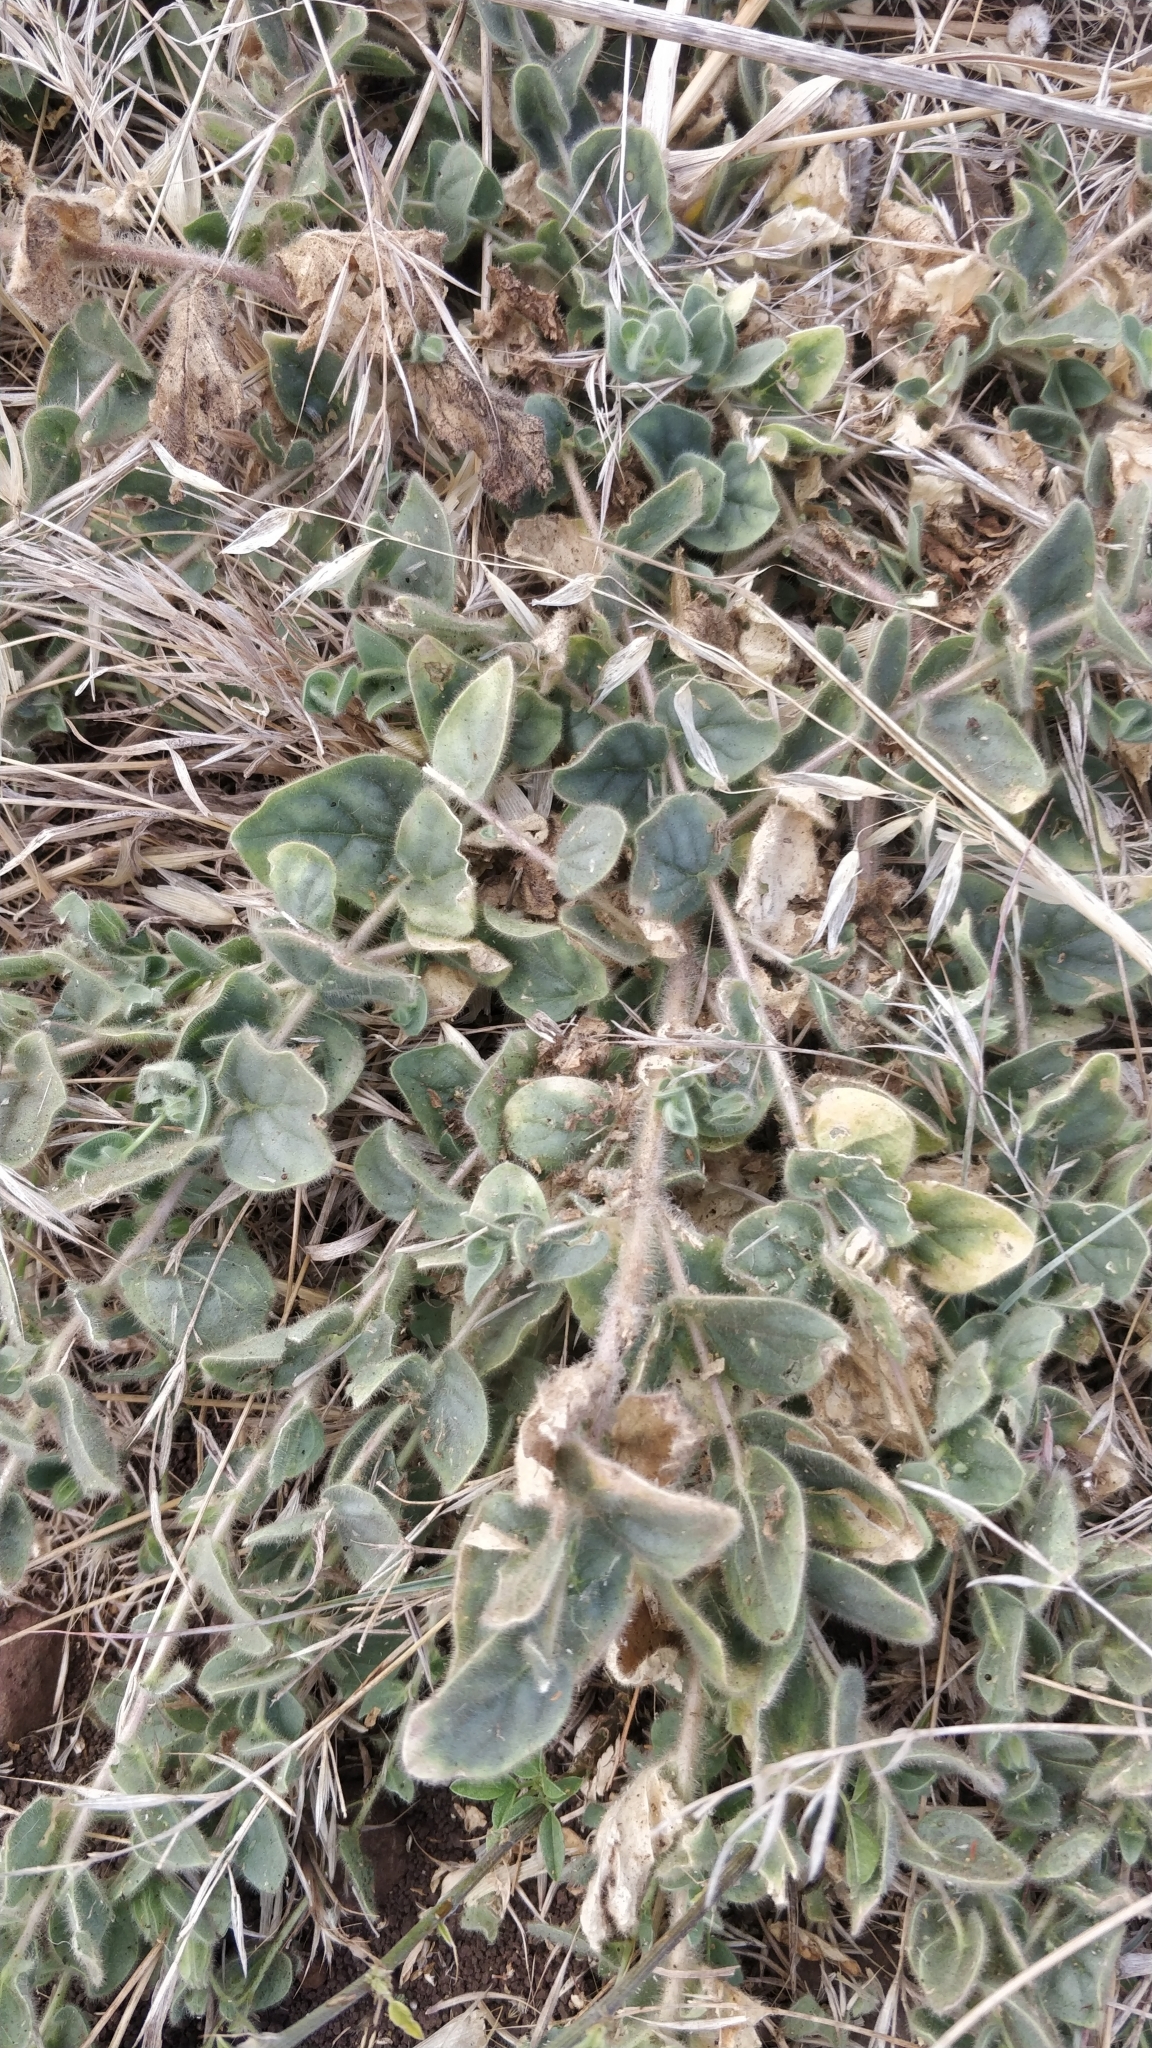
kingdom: Plantae
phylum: Tracheophyta
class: Magnoliopsida
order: Lamiales
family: Plantaginaceae
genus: Kickxia
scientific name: Kickxia spuria
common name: Round-leaved fluellen
